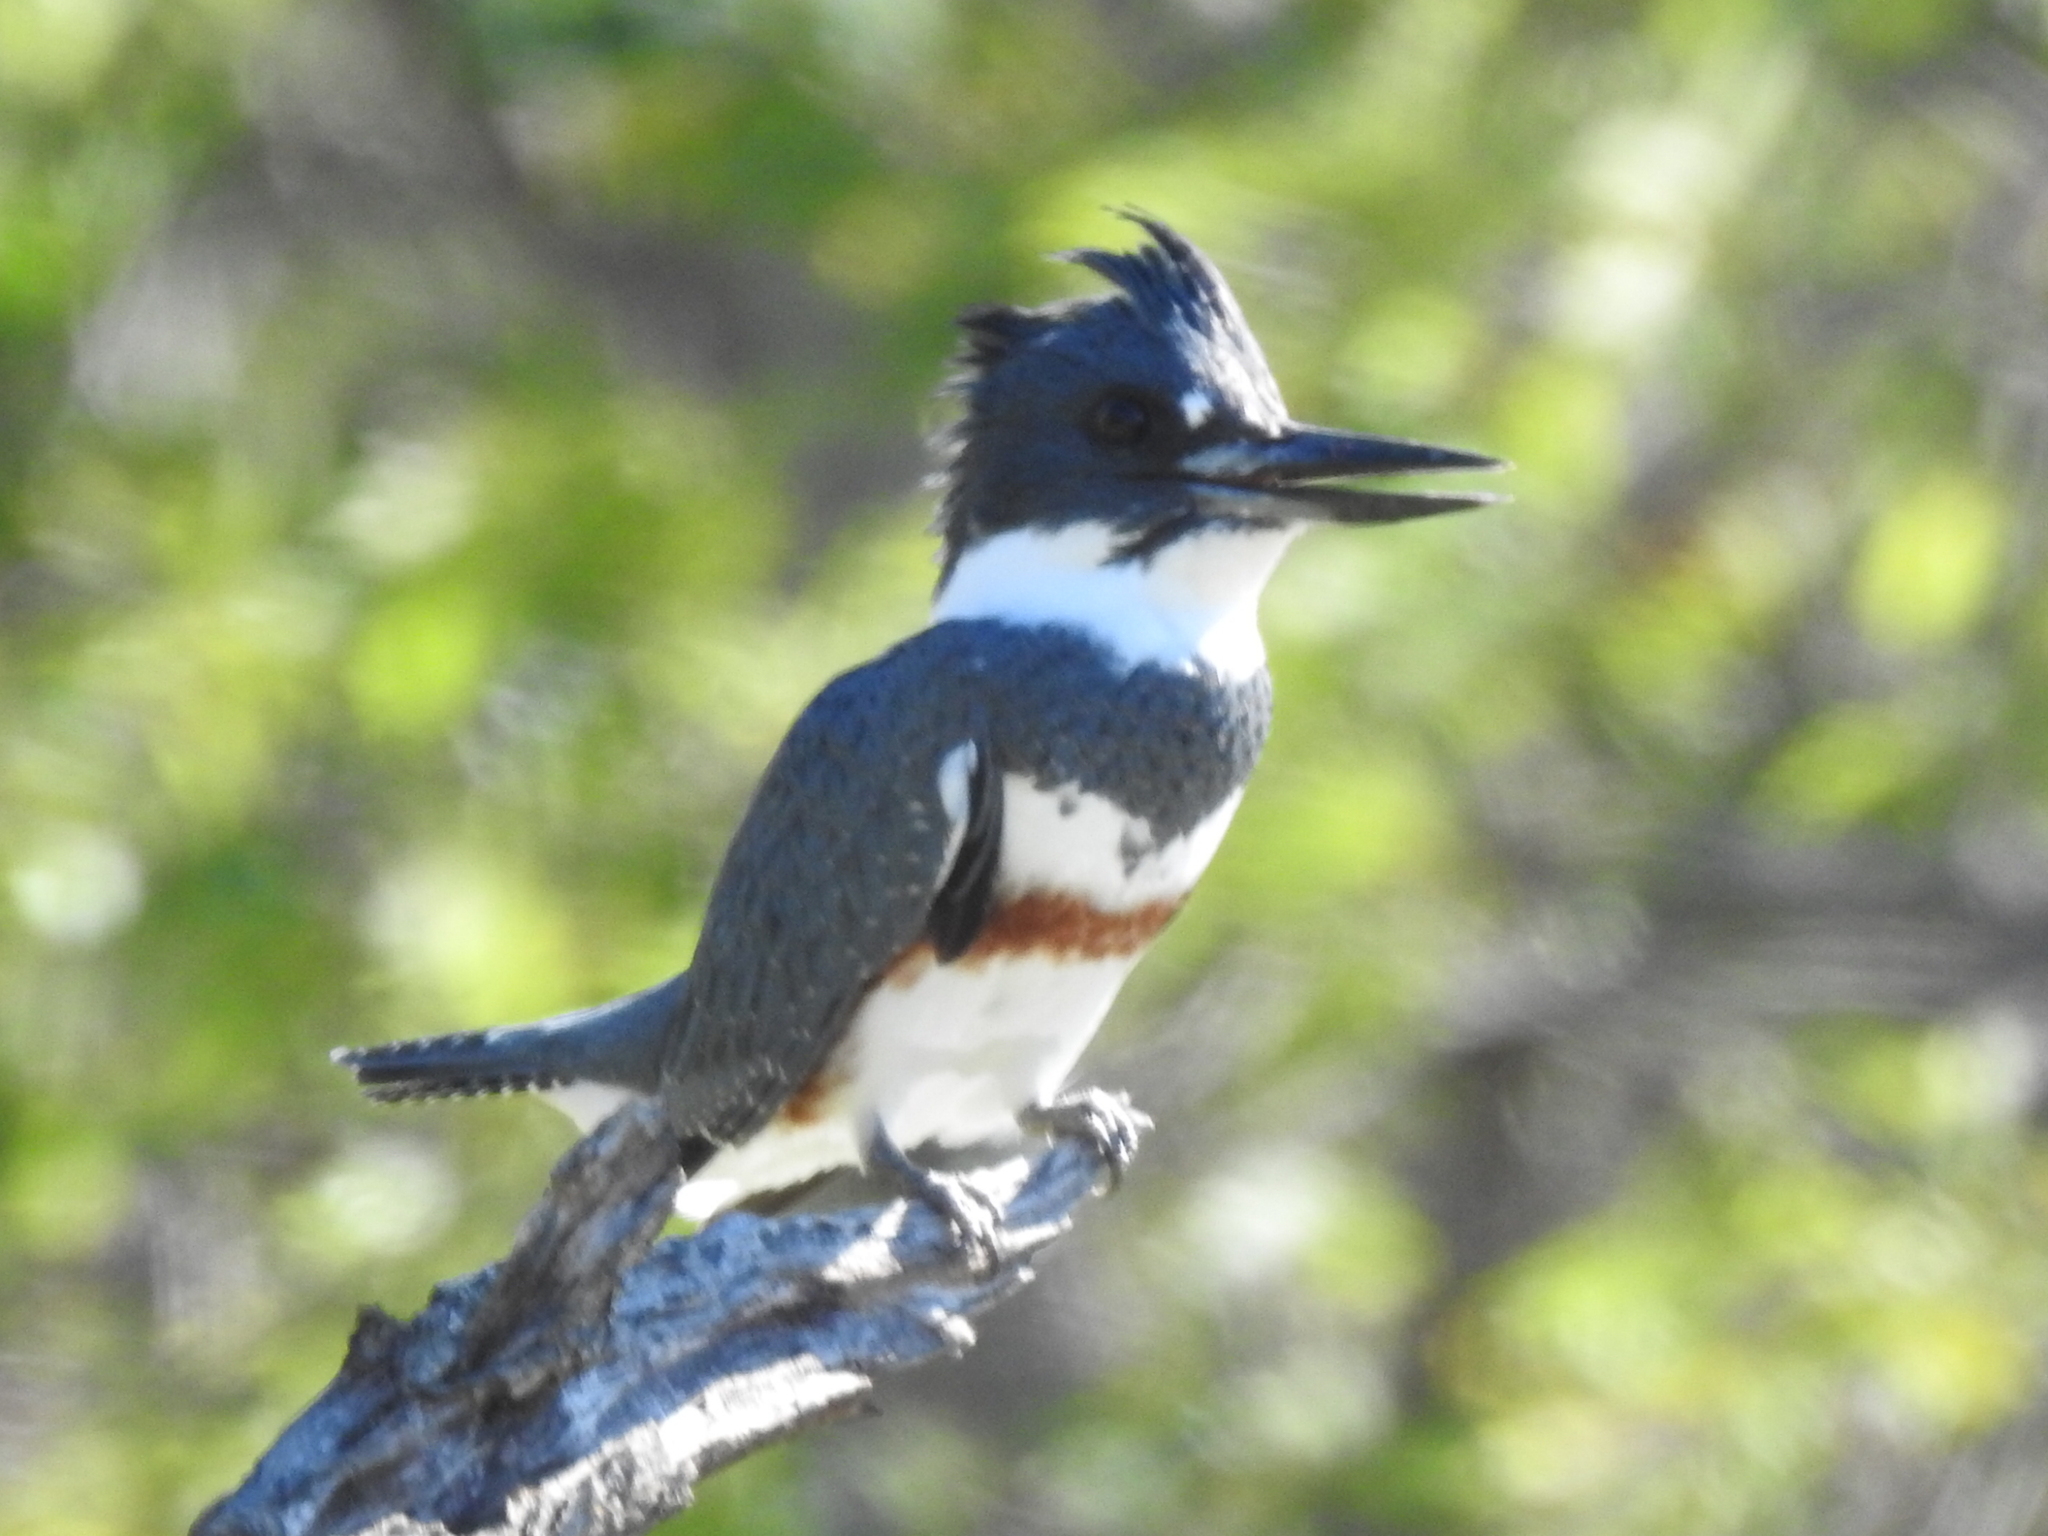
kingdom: Animalia
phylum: Chordata
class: Aves
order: Coraciiformes
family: Alcedinidae
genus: Megaceryle
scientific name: Megaceryle alcyon
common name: Belted kingfisher
